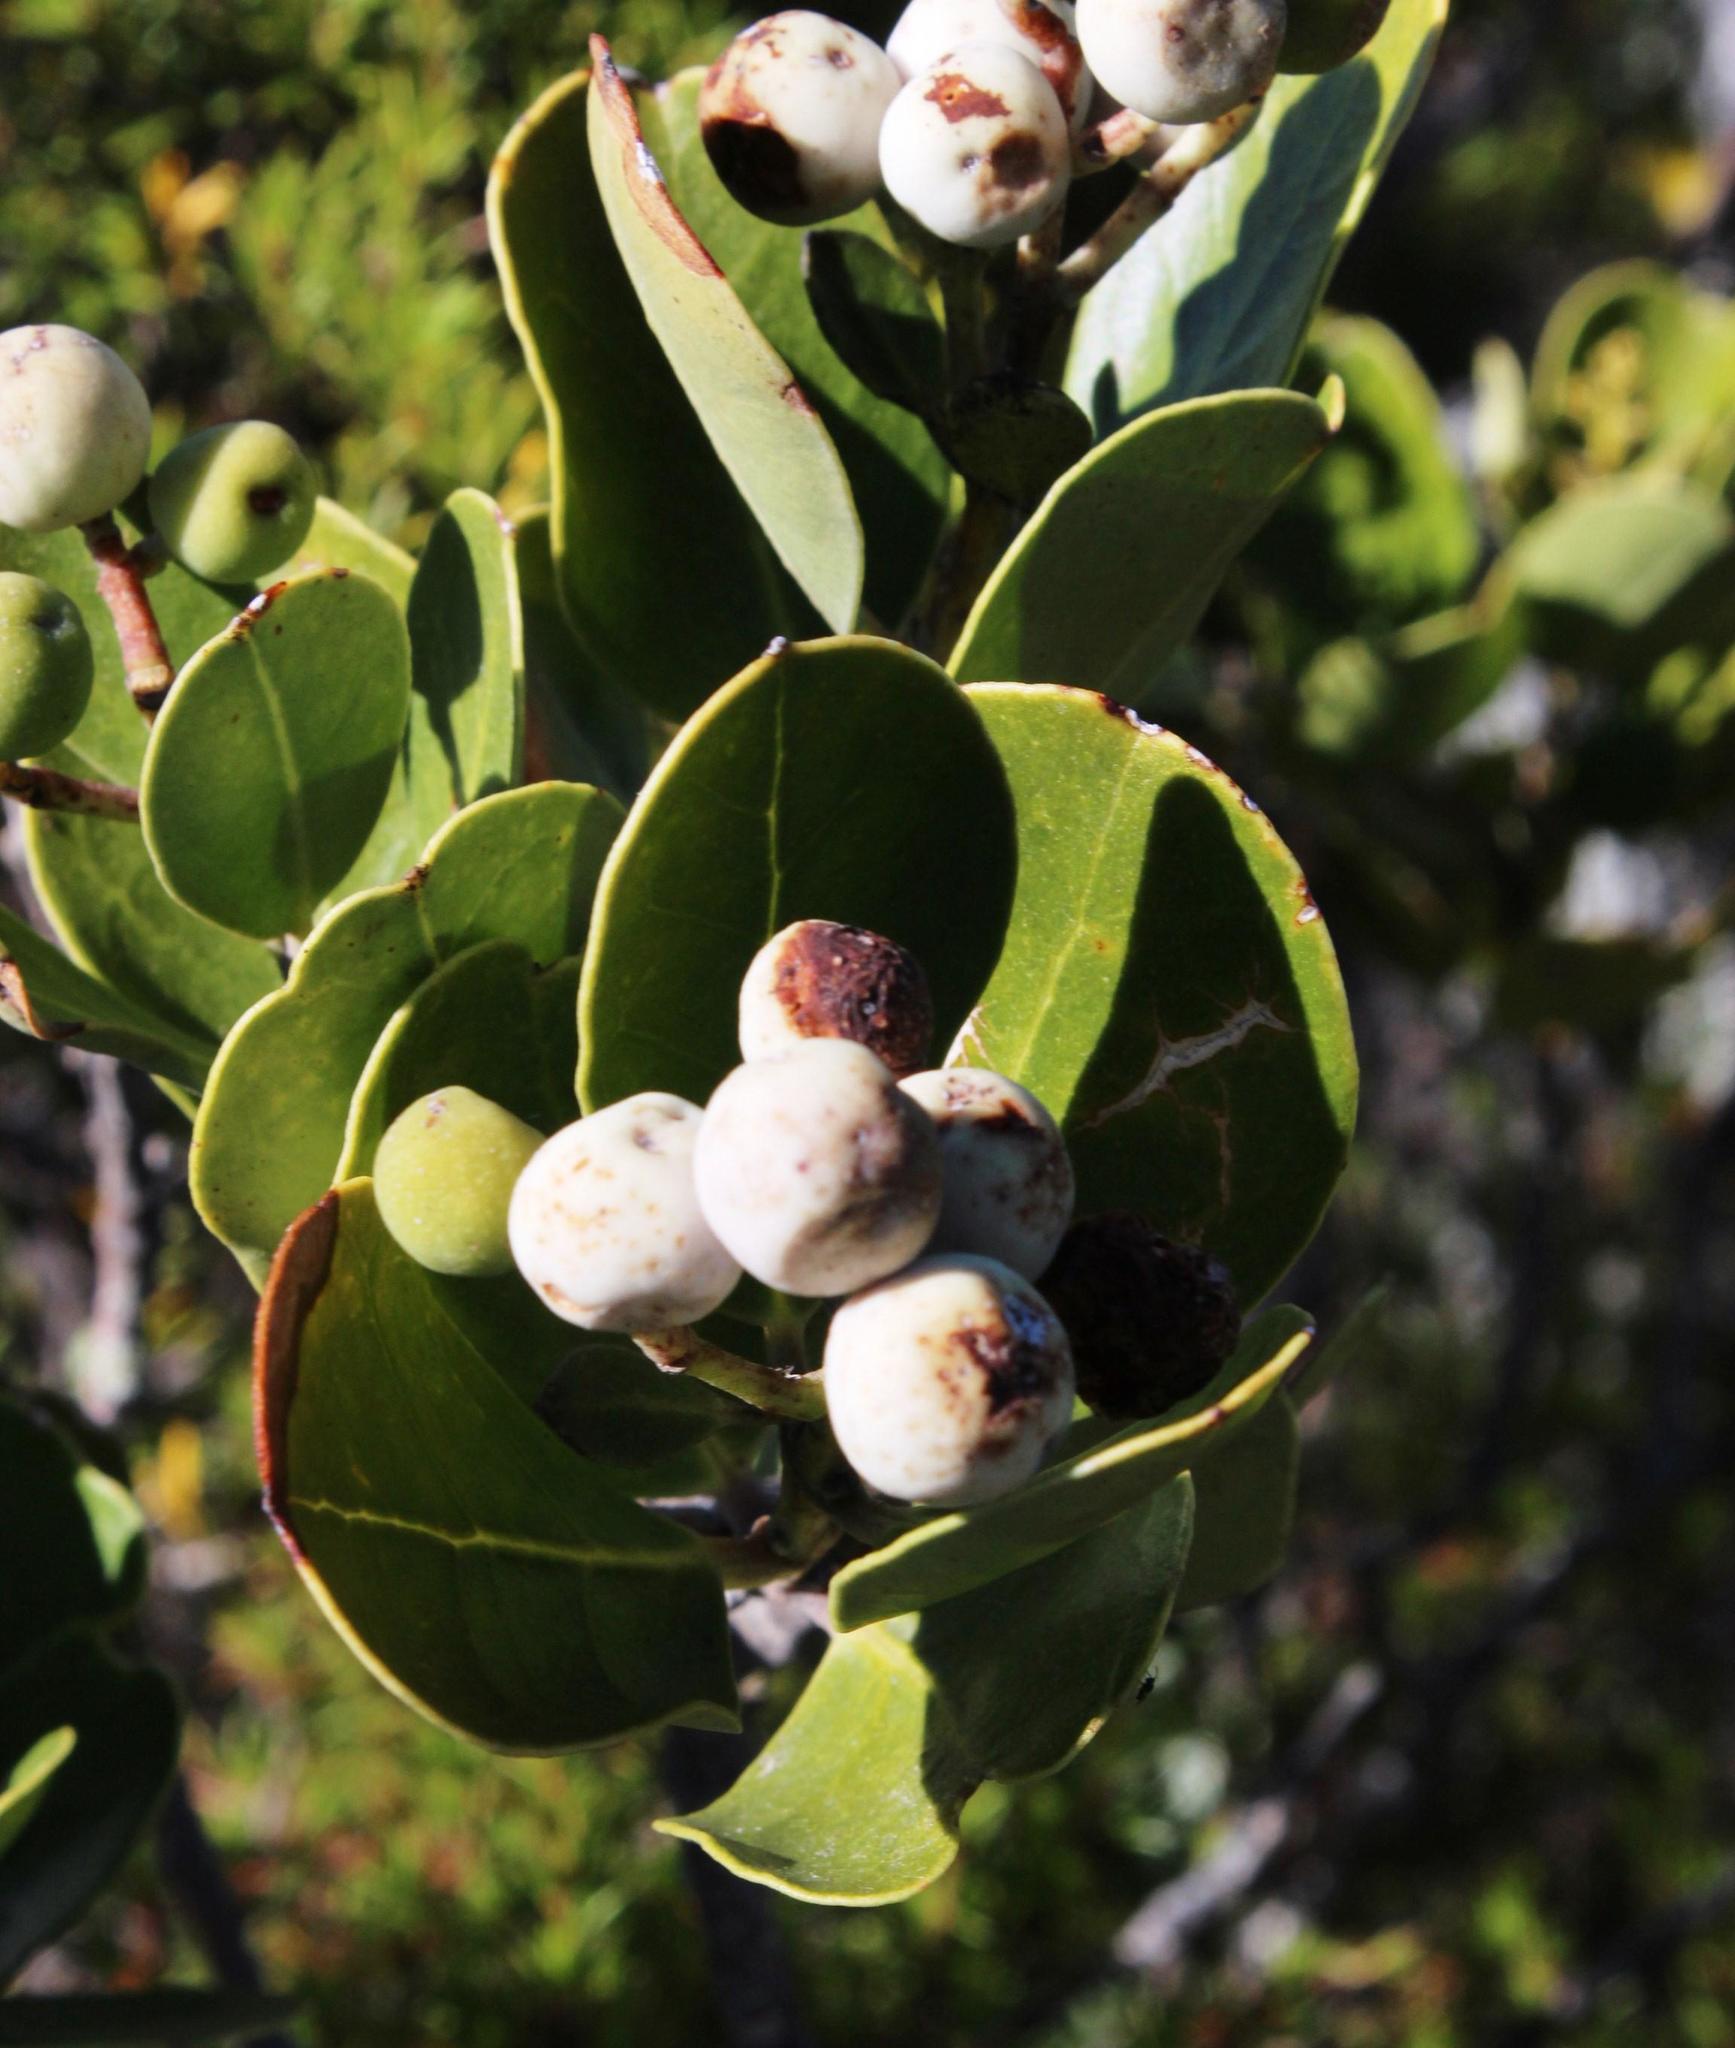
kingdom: Plantae
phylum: Tracheophyta
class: Magnoliopsida
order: Lamiales
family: Oleaceae
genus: Olea
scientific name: Olea capensis
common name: Black ironwood
